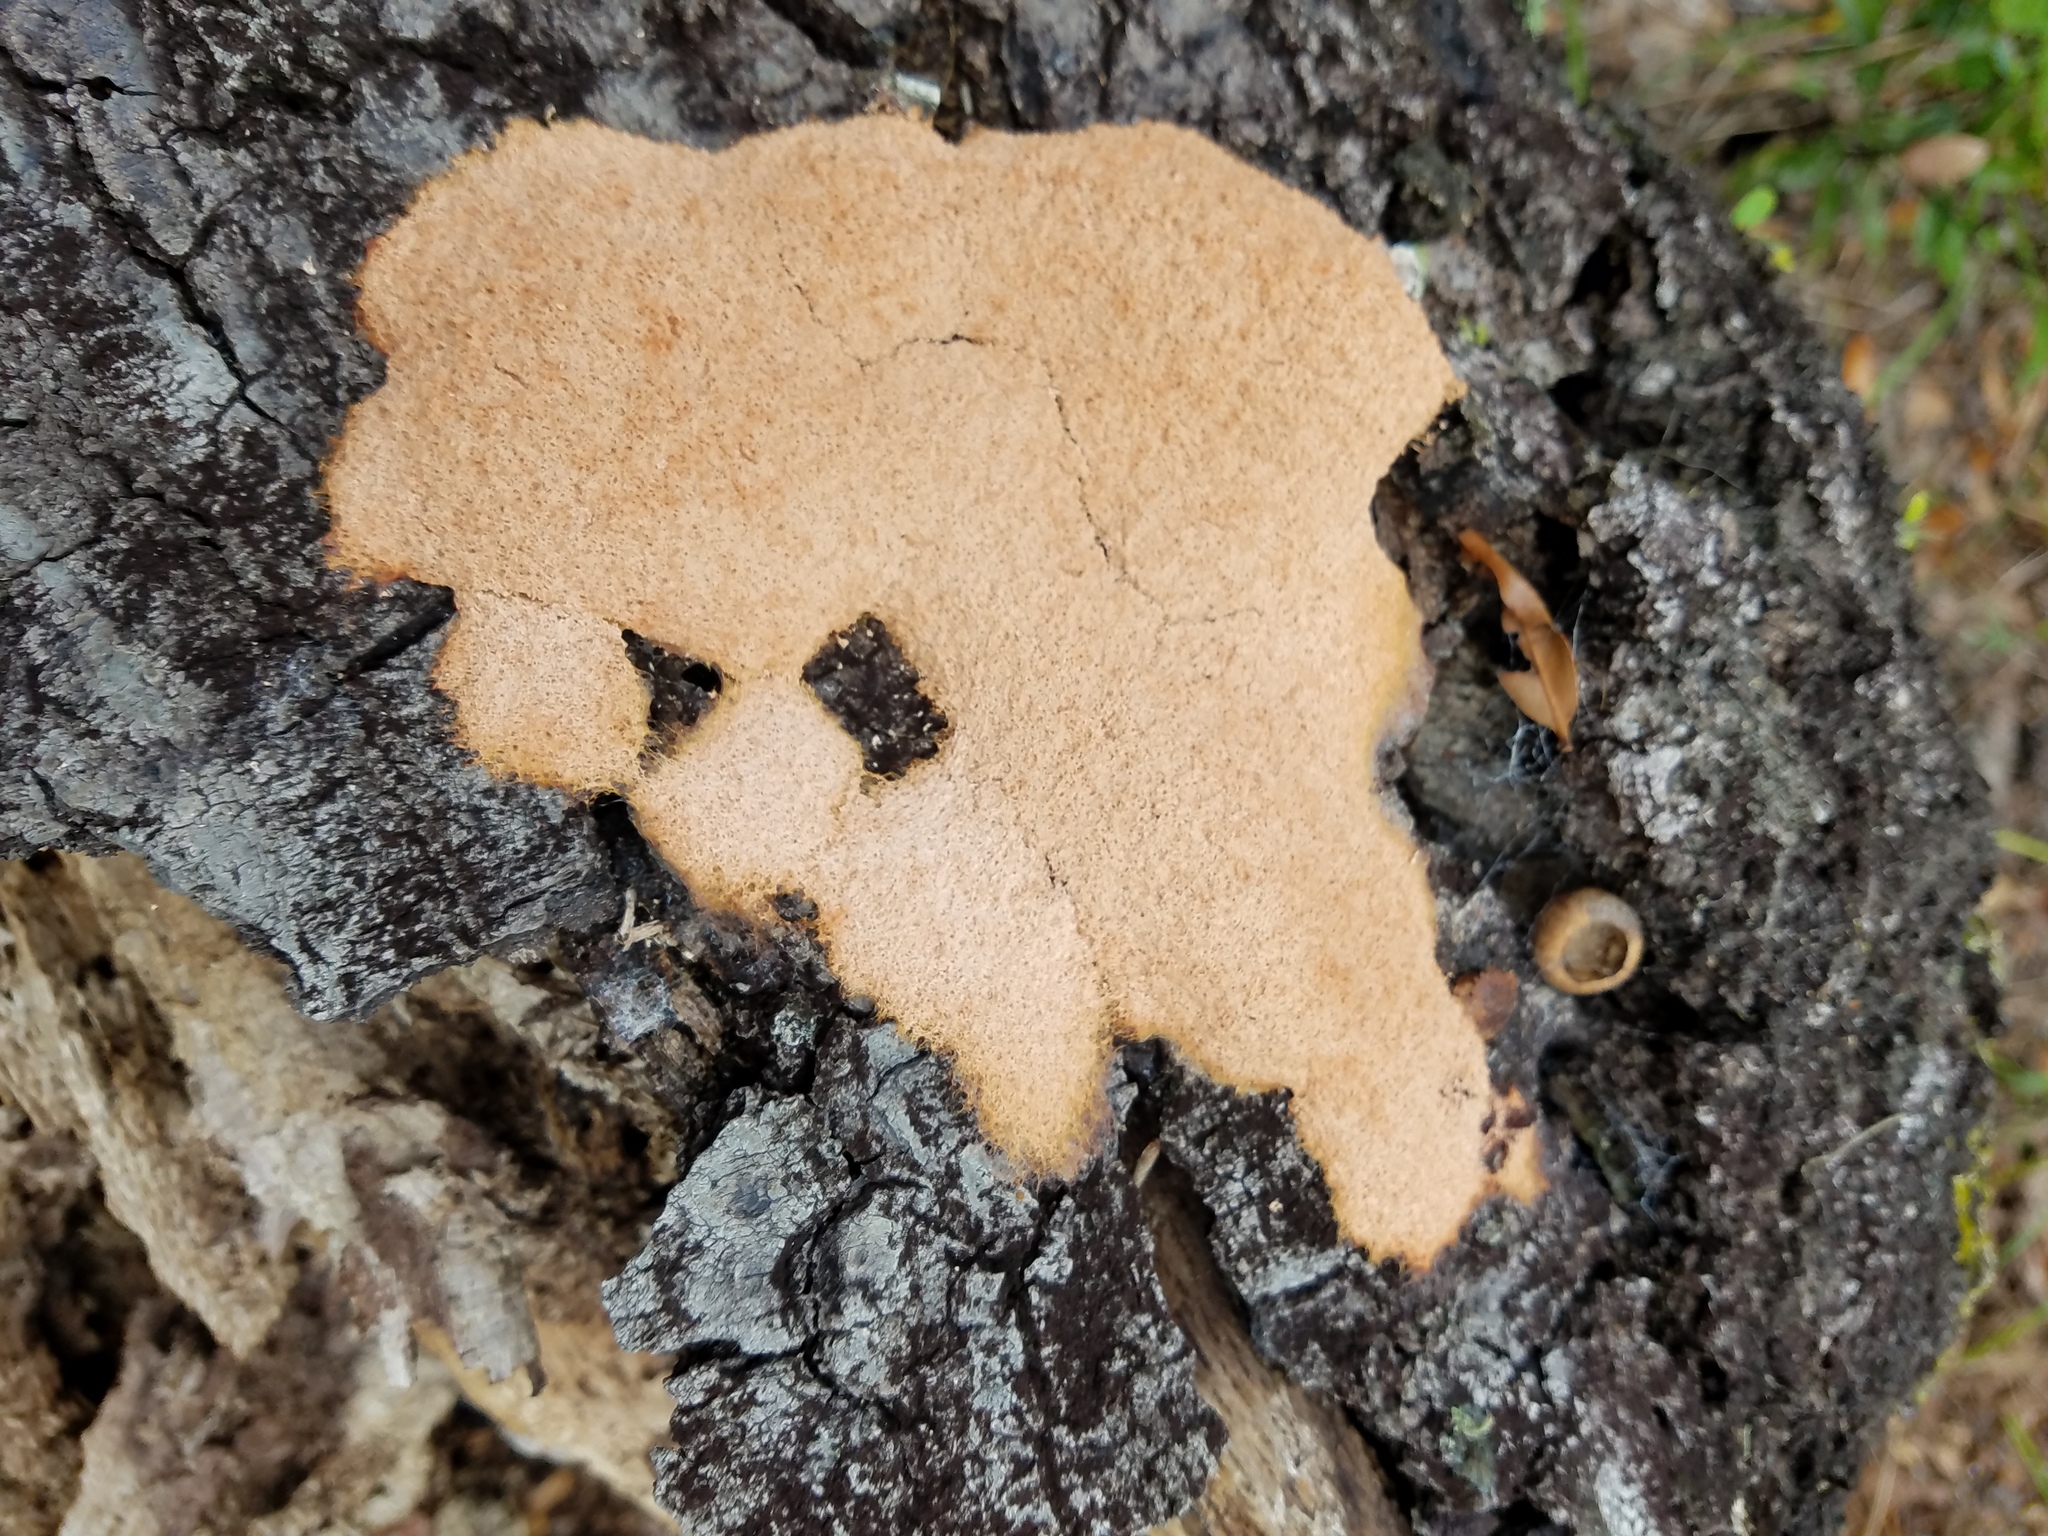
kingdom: Protozoa
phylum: Mycetozoa
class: Myxomycetes
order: Physarales
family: Physaraceae
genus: Fuligo
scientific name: Fuligo septica
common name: Dog vomit slime mold
